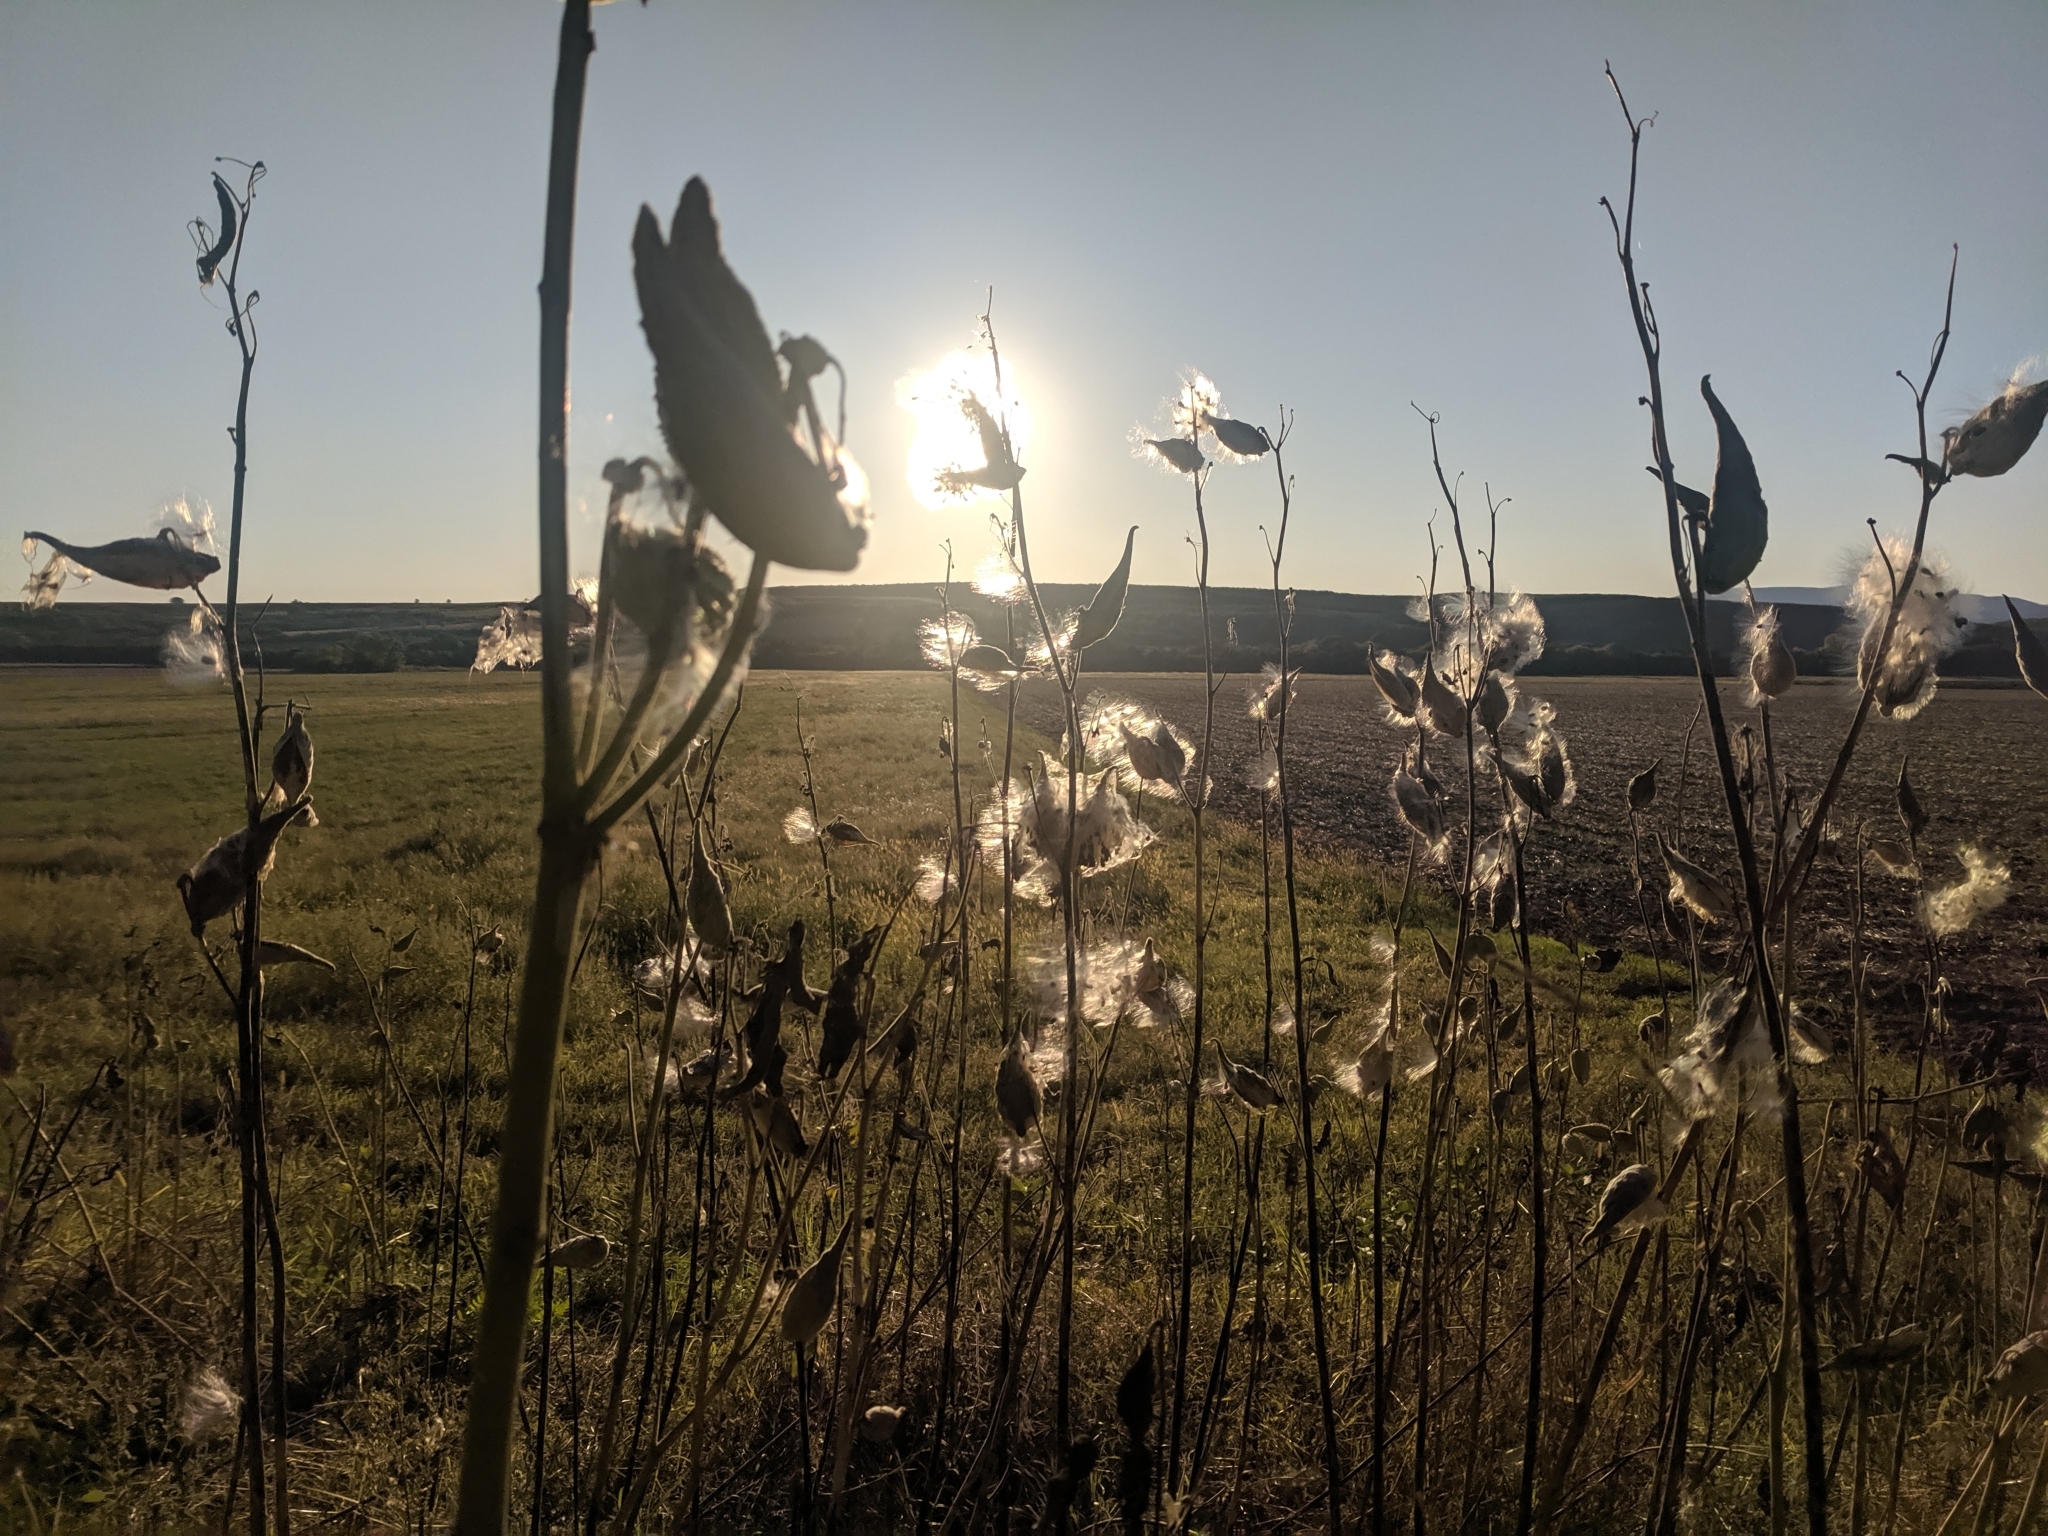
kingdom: Plantae
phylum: Tracheophyta
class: Magnoliopsida
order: Gentianales
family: Apocynaceae
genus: Asclepias
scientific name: Asclepias syriaca
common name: Common milkweed
